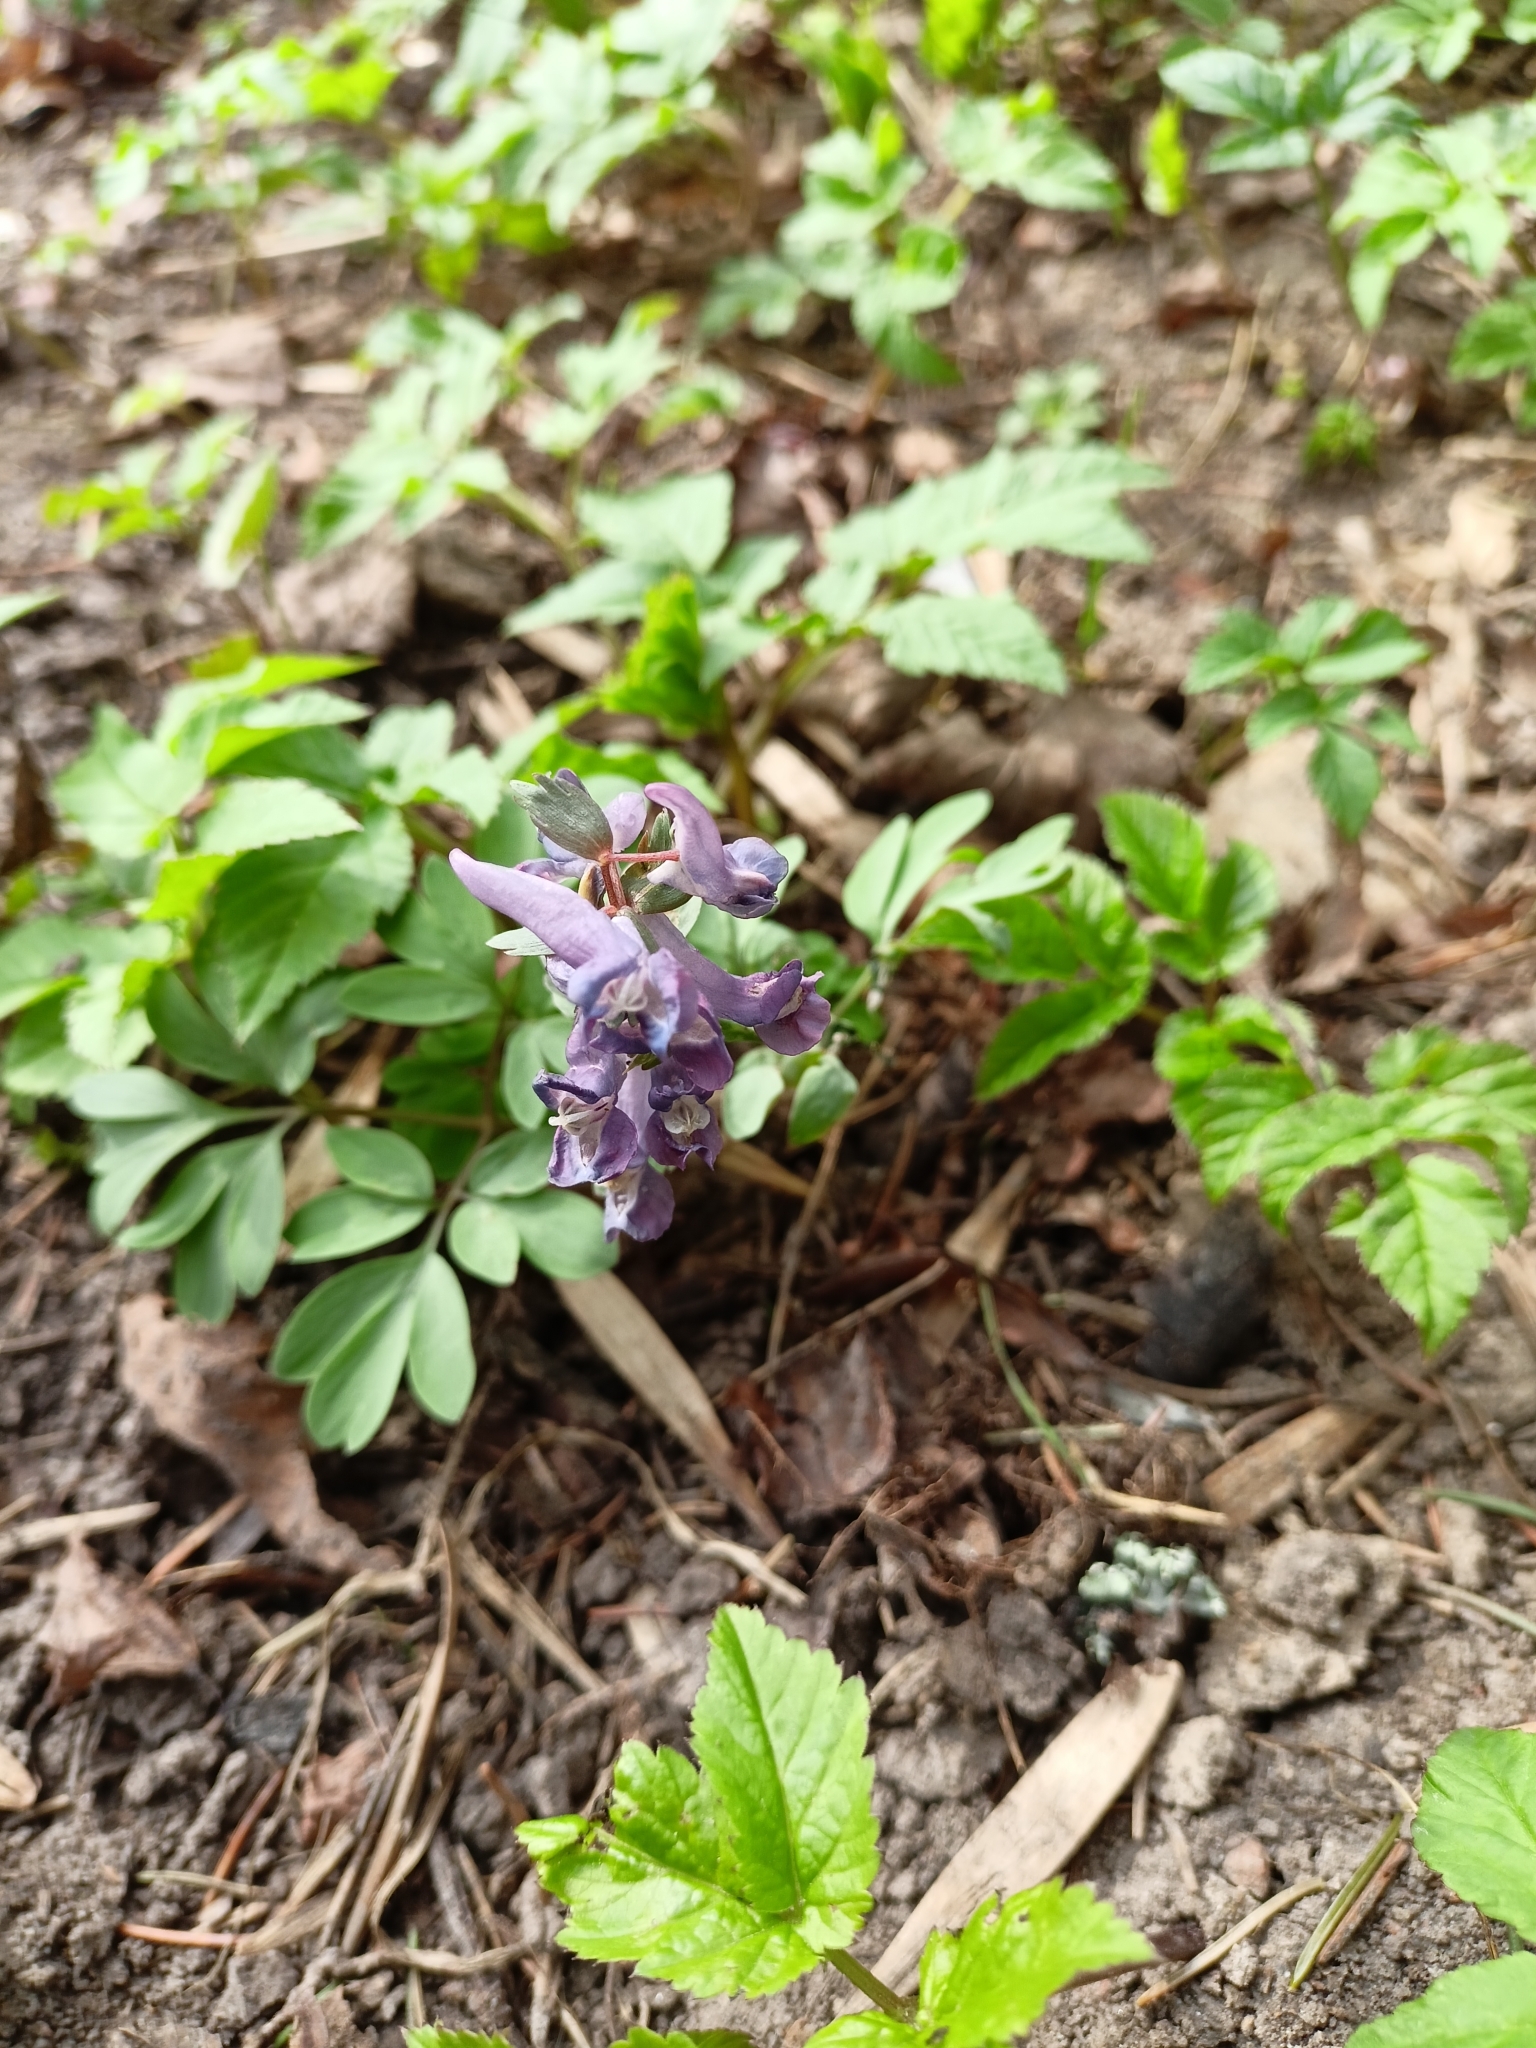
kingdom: Plantae
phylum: Tracheophyta
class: Magnoliopsida
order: Ranunculales
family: Papaveraceae
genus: Corydalis
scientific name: Corydalis solida
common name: Bird-in-a-bush
